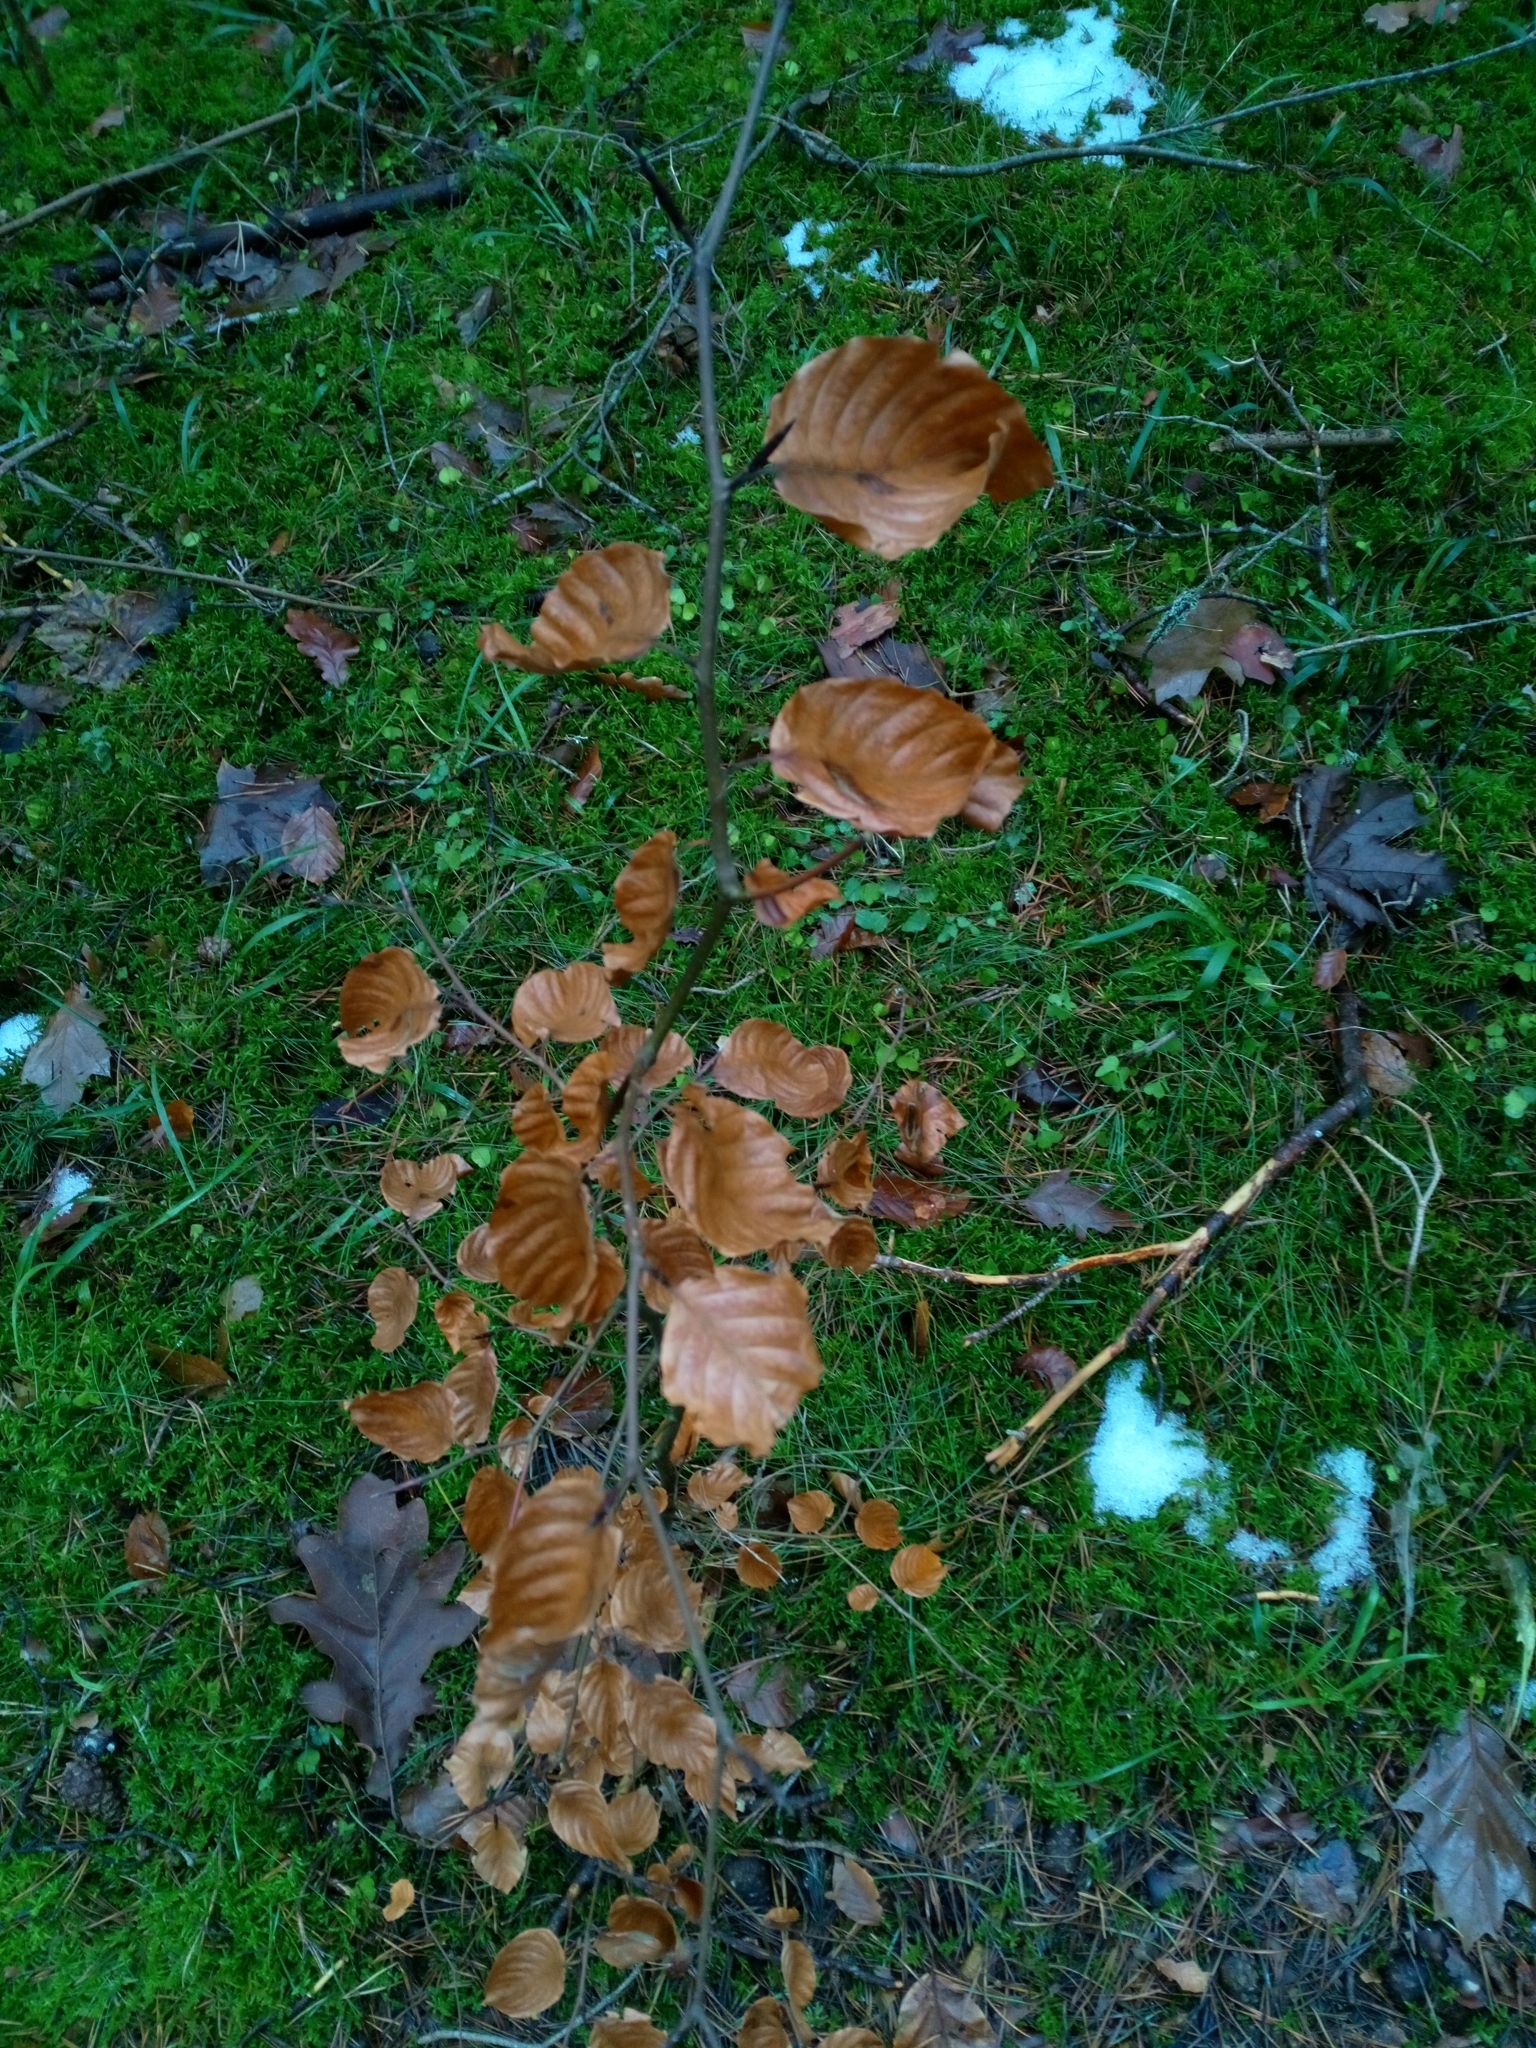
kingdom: Plantae
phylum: Tracheophyta
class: Magnoliopsida
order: Fagales
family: Fagaceae
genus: Fagus
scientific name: Fagus sylvatica
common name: Beech
